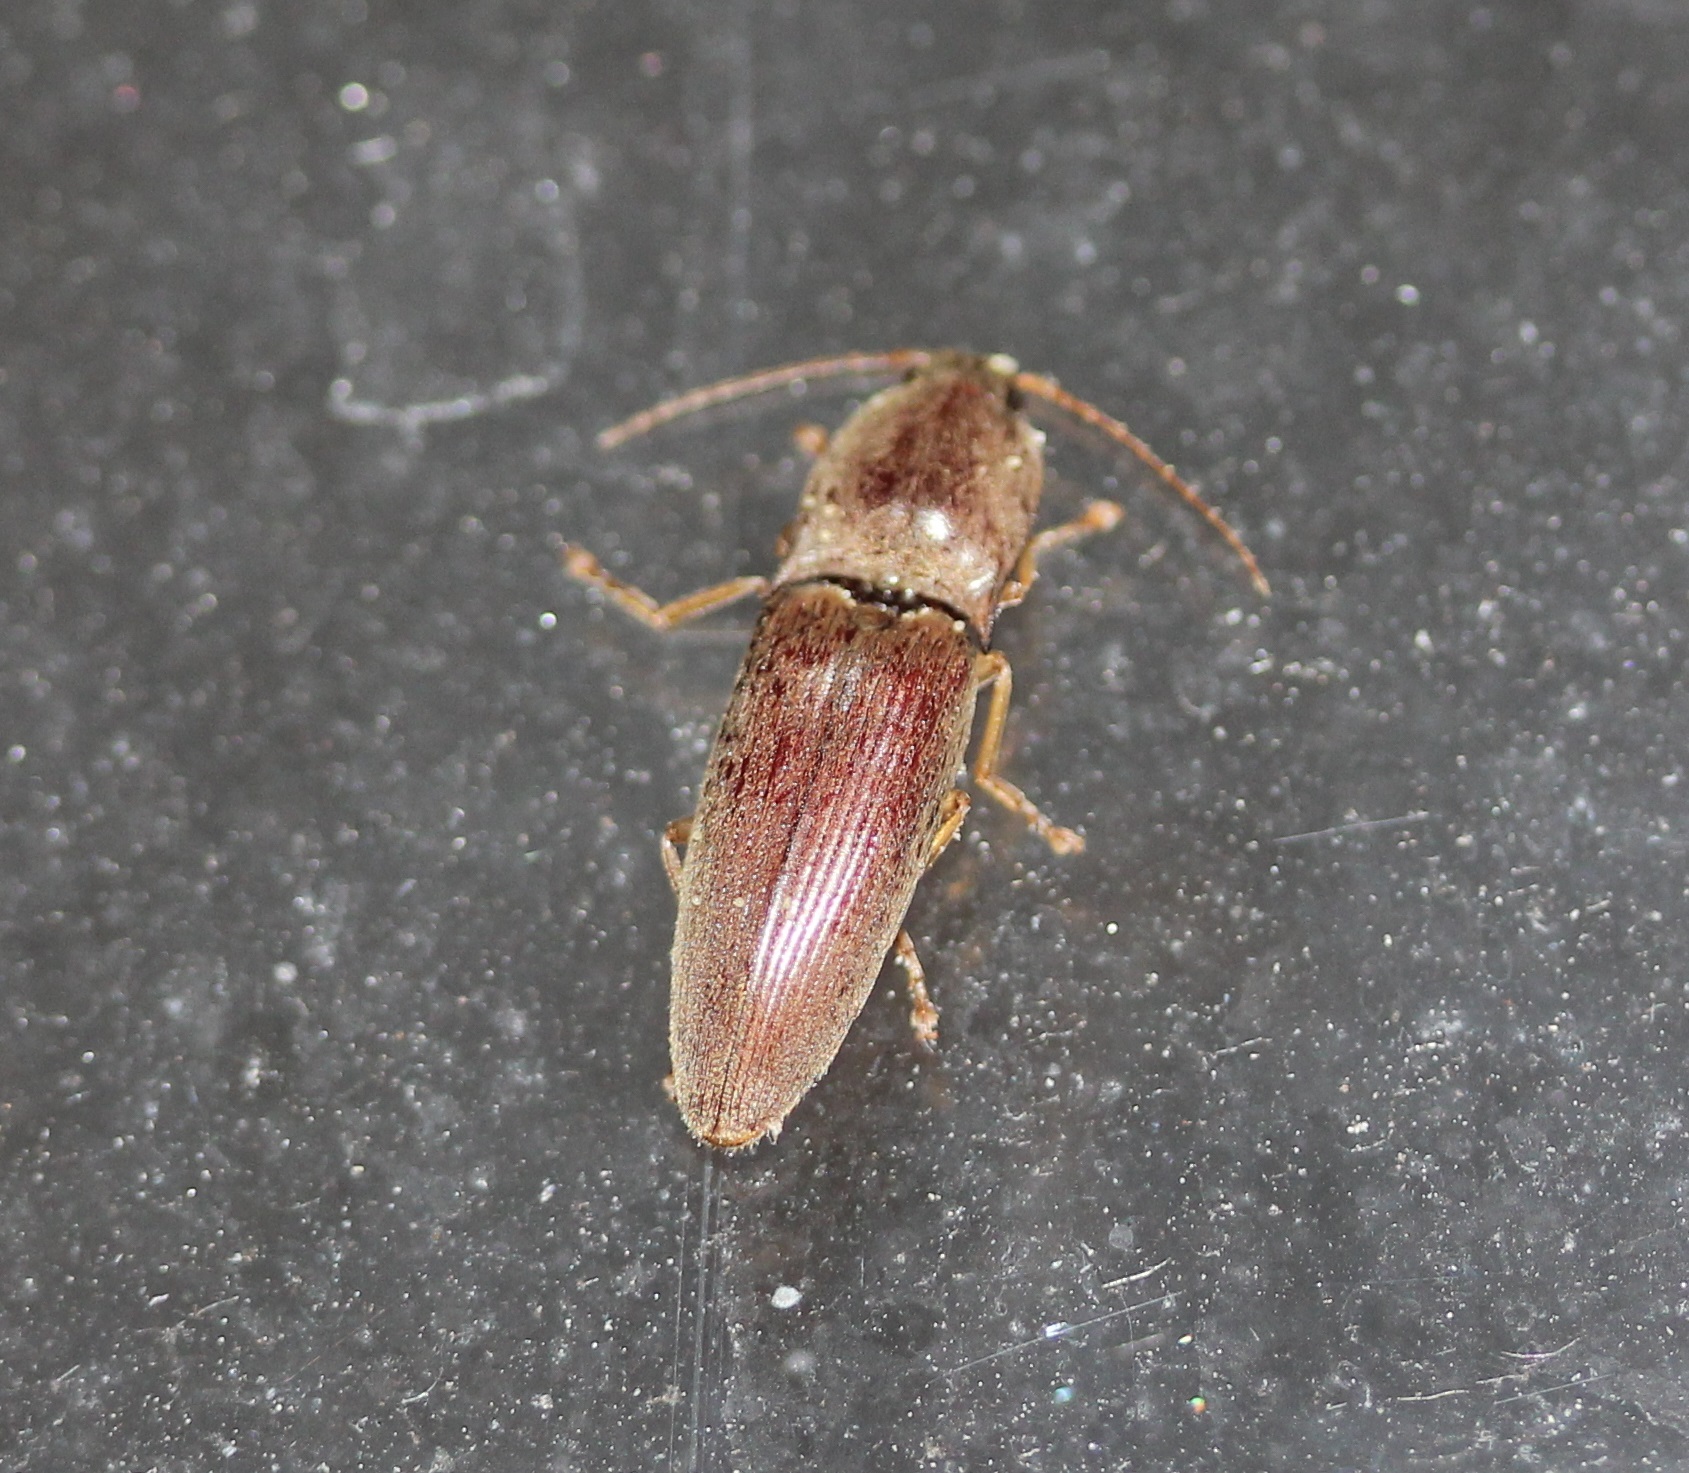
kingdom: Animalia
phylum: Arthropoda
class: Insecta
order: Coleoptera
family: Elateridae
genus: Monocrepidius
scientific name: Monocrepidius lividus
